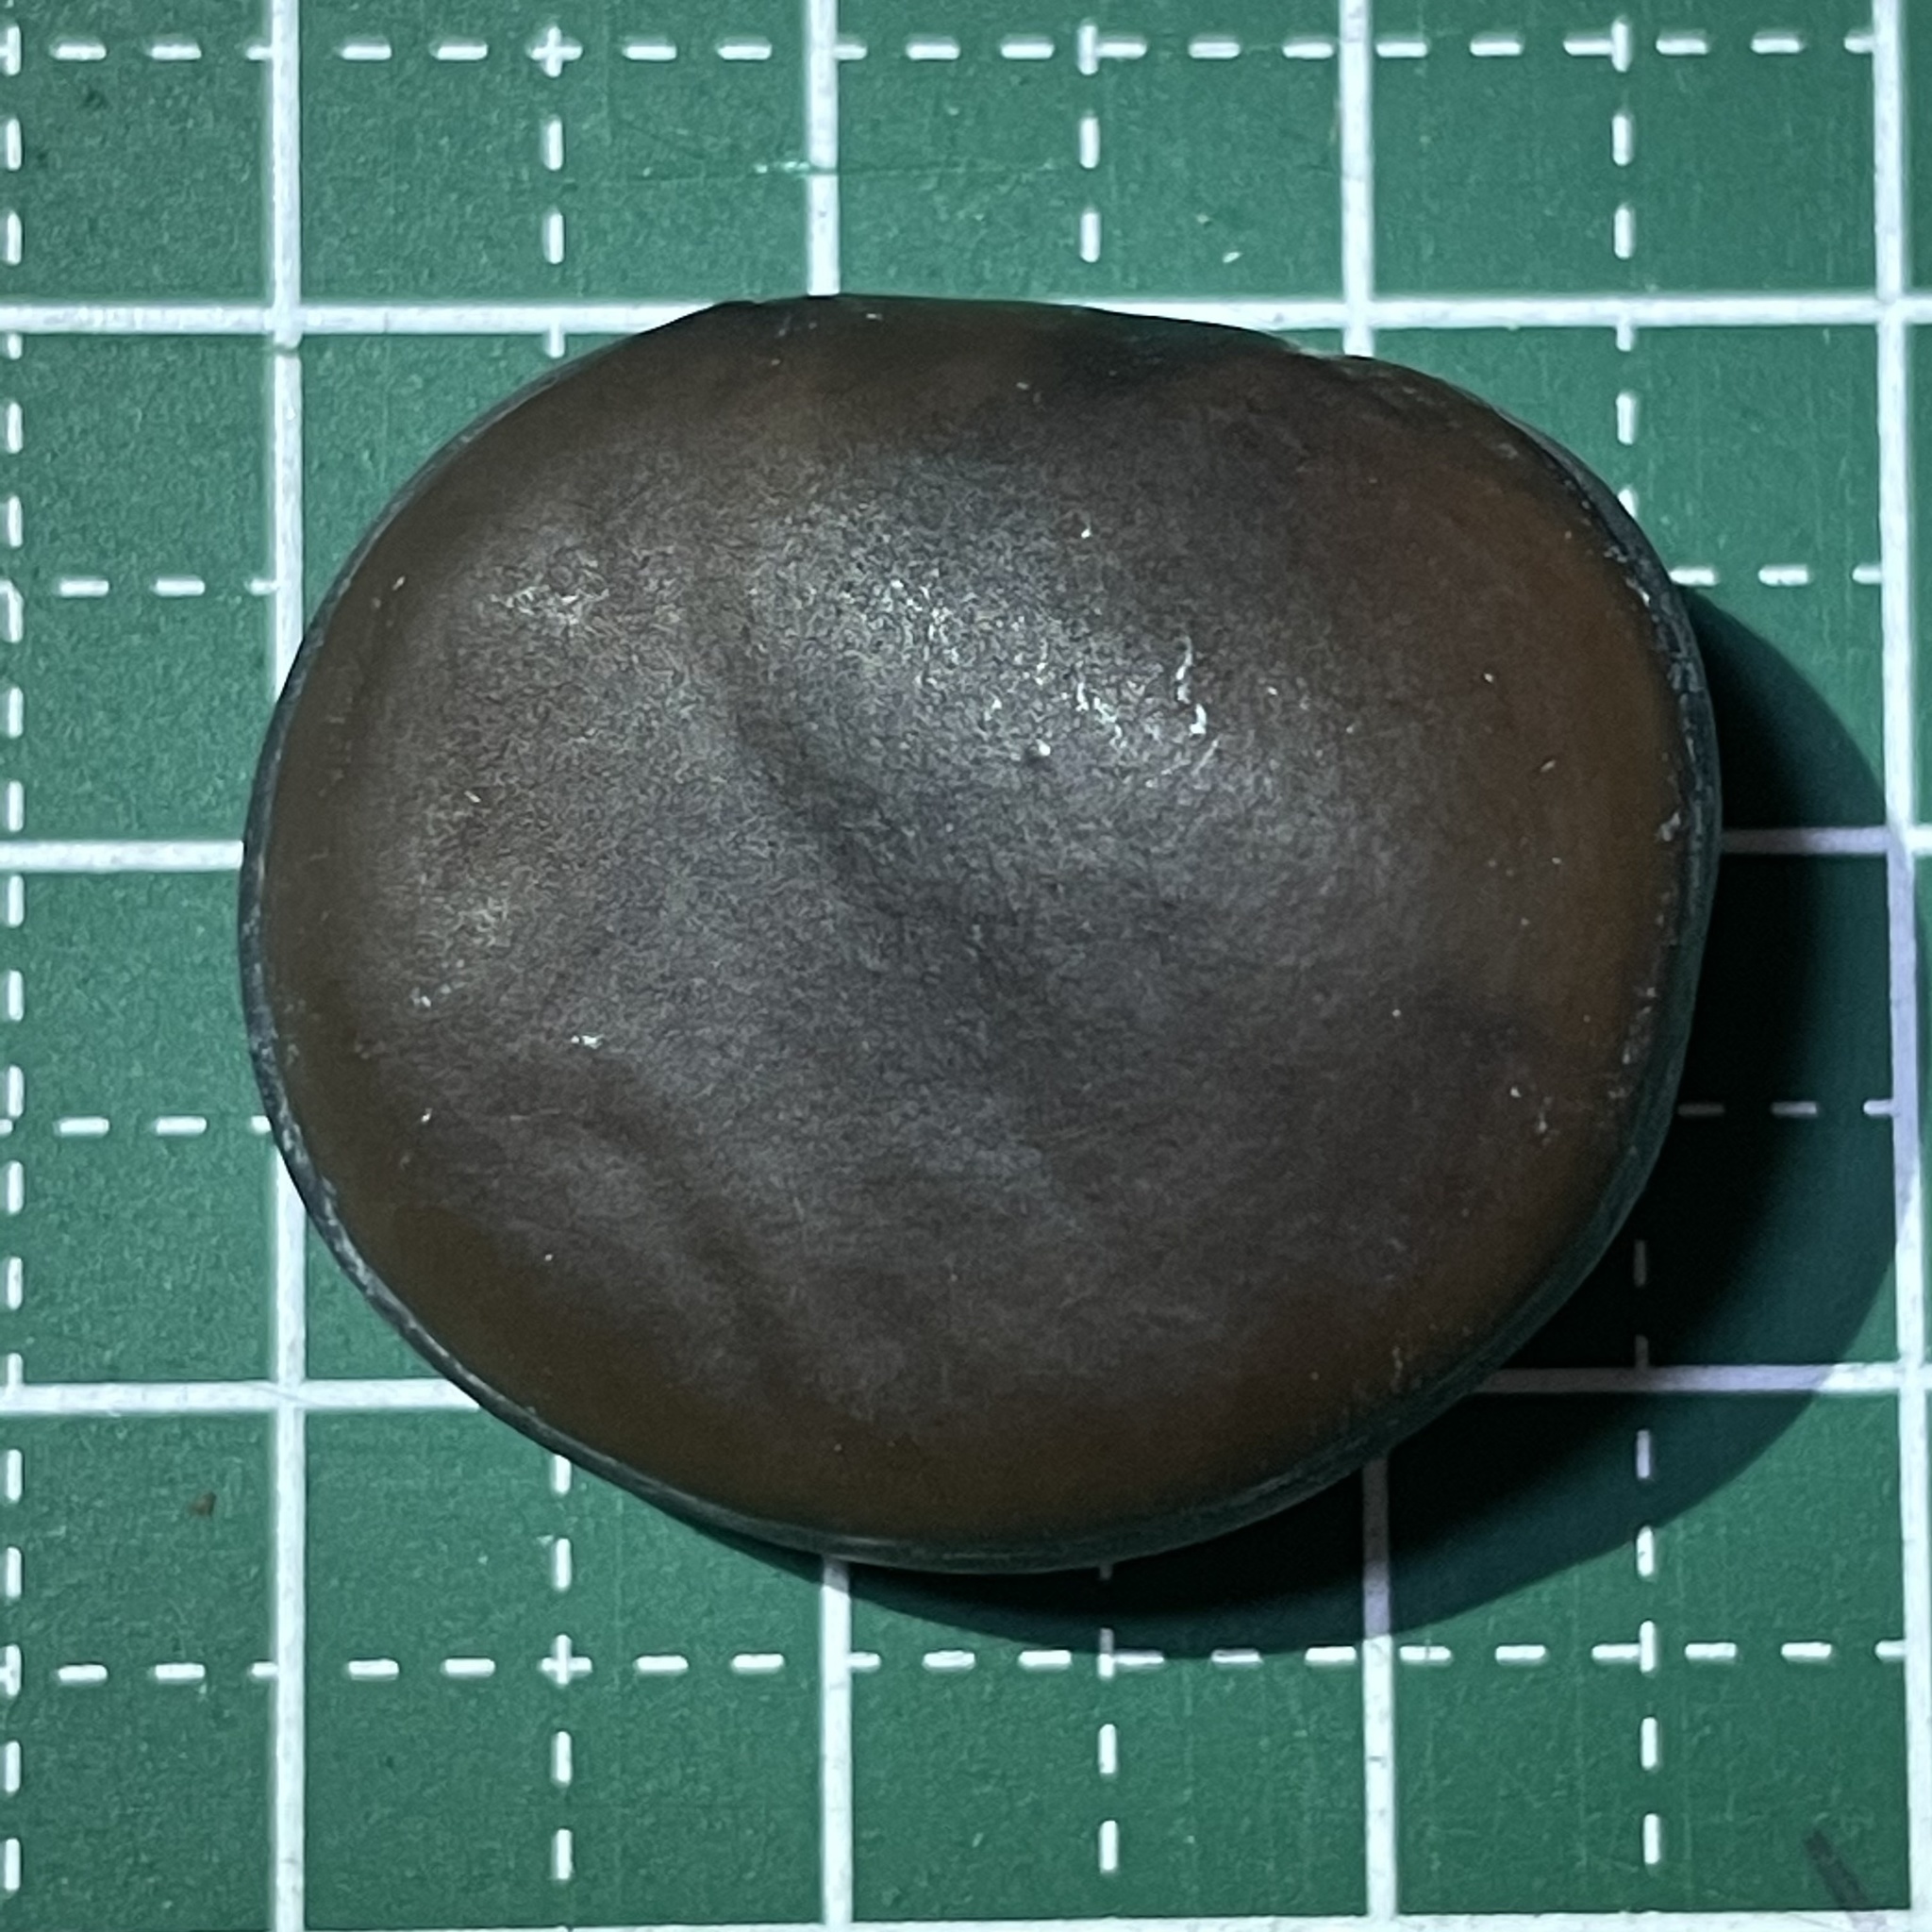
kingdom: Plantae
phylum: Tracheophyta
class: Magnoliopsida
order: Fabales
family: Fabaceae
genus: Mucuna
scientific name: Mucuna macrocarpa
